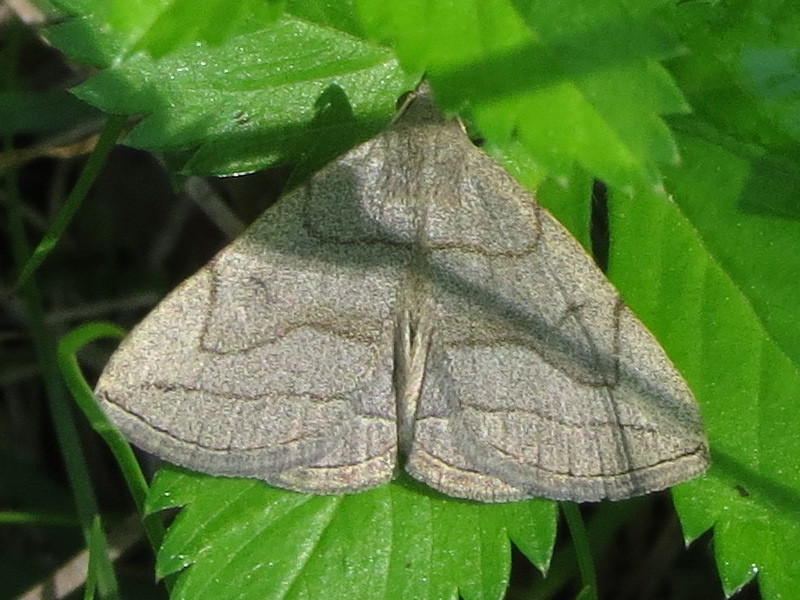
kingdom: Animalia
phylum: Arthropoda
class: Insecta
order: Lepidoptera
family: Erebidae
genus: Zanclognatha
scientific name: Zanclognatha pedipilalis
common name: Grayish fan-foot
